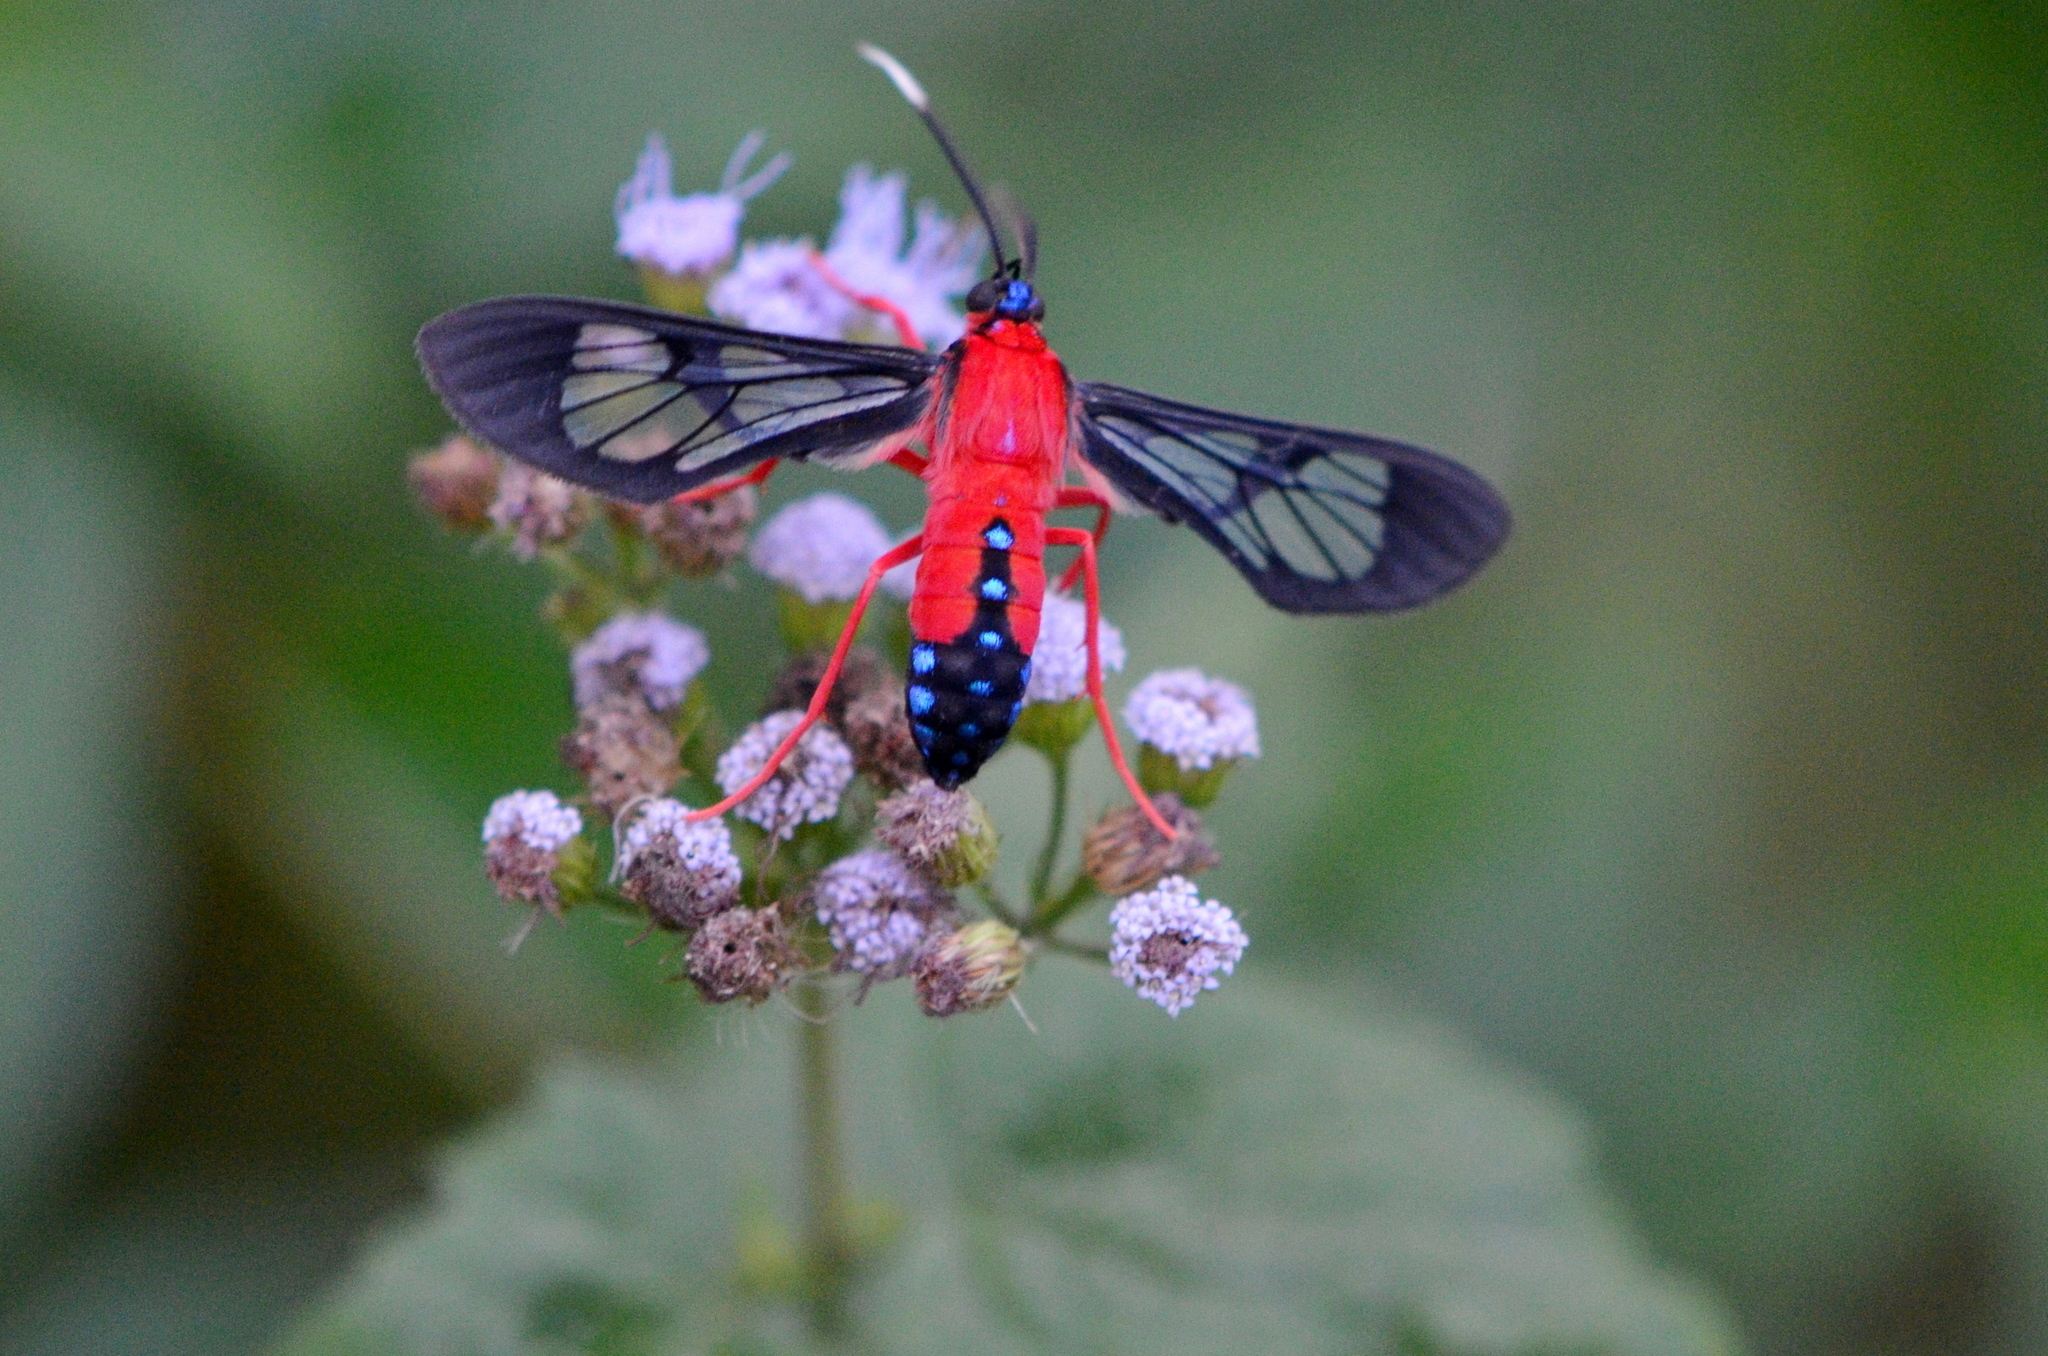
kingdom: Animalia
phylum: Arthropoda
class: Insecta
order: Lepidoptera
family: Erebidae
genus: Cosmosoma
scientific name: Cosmosoma myrodora
